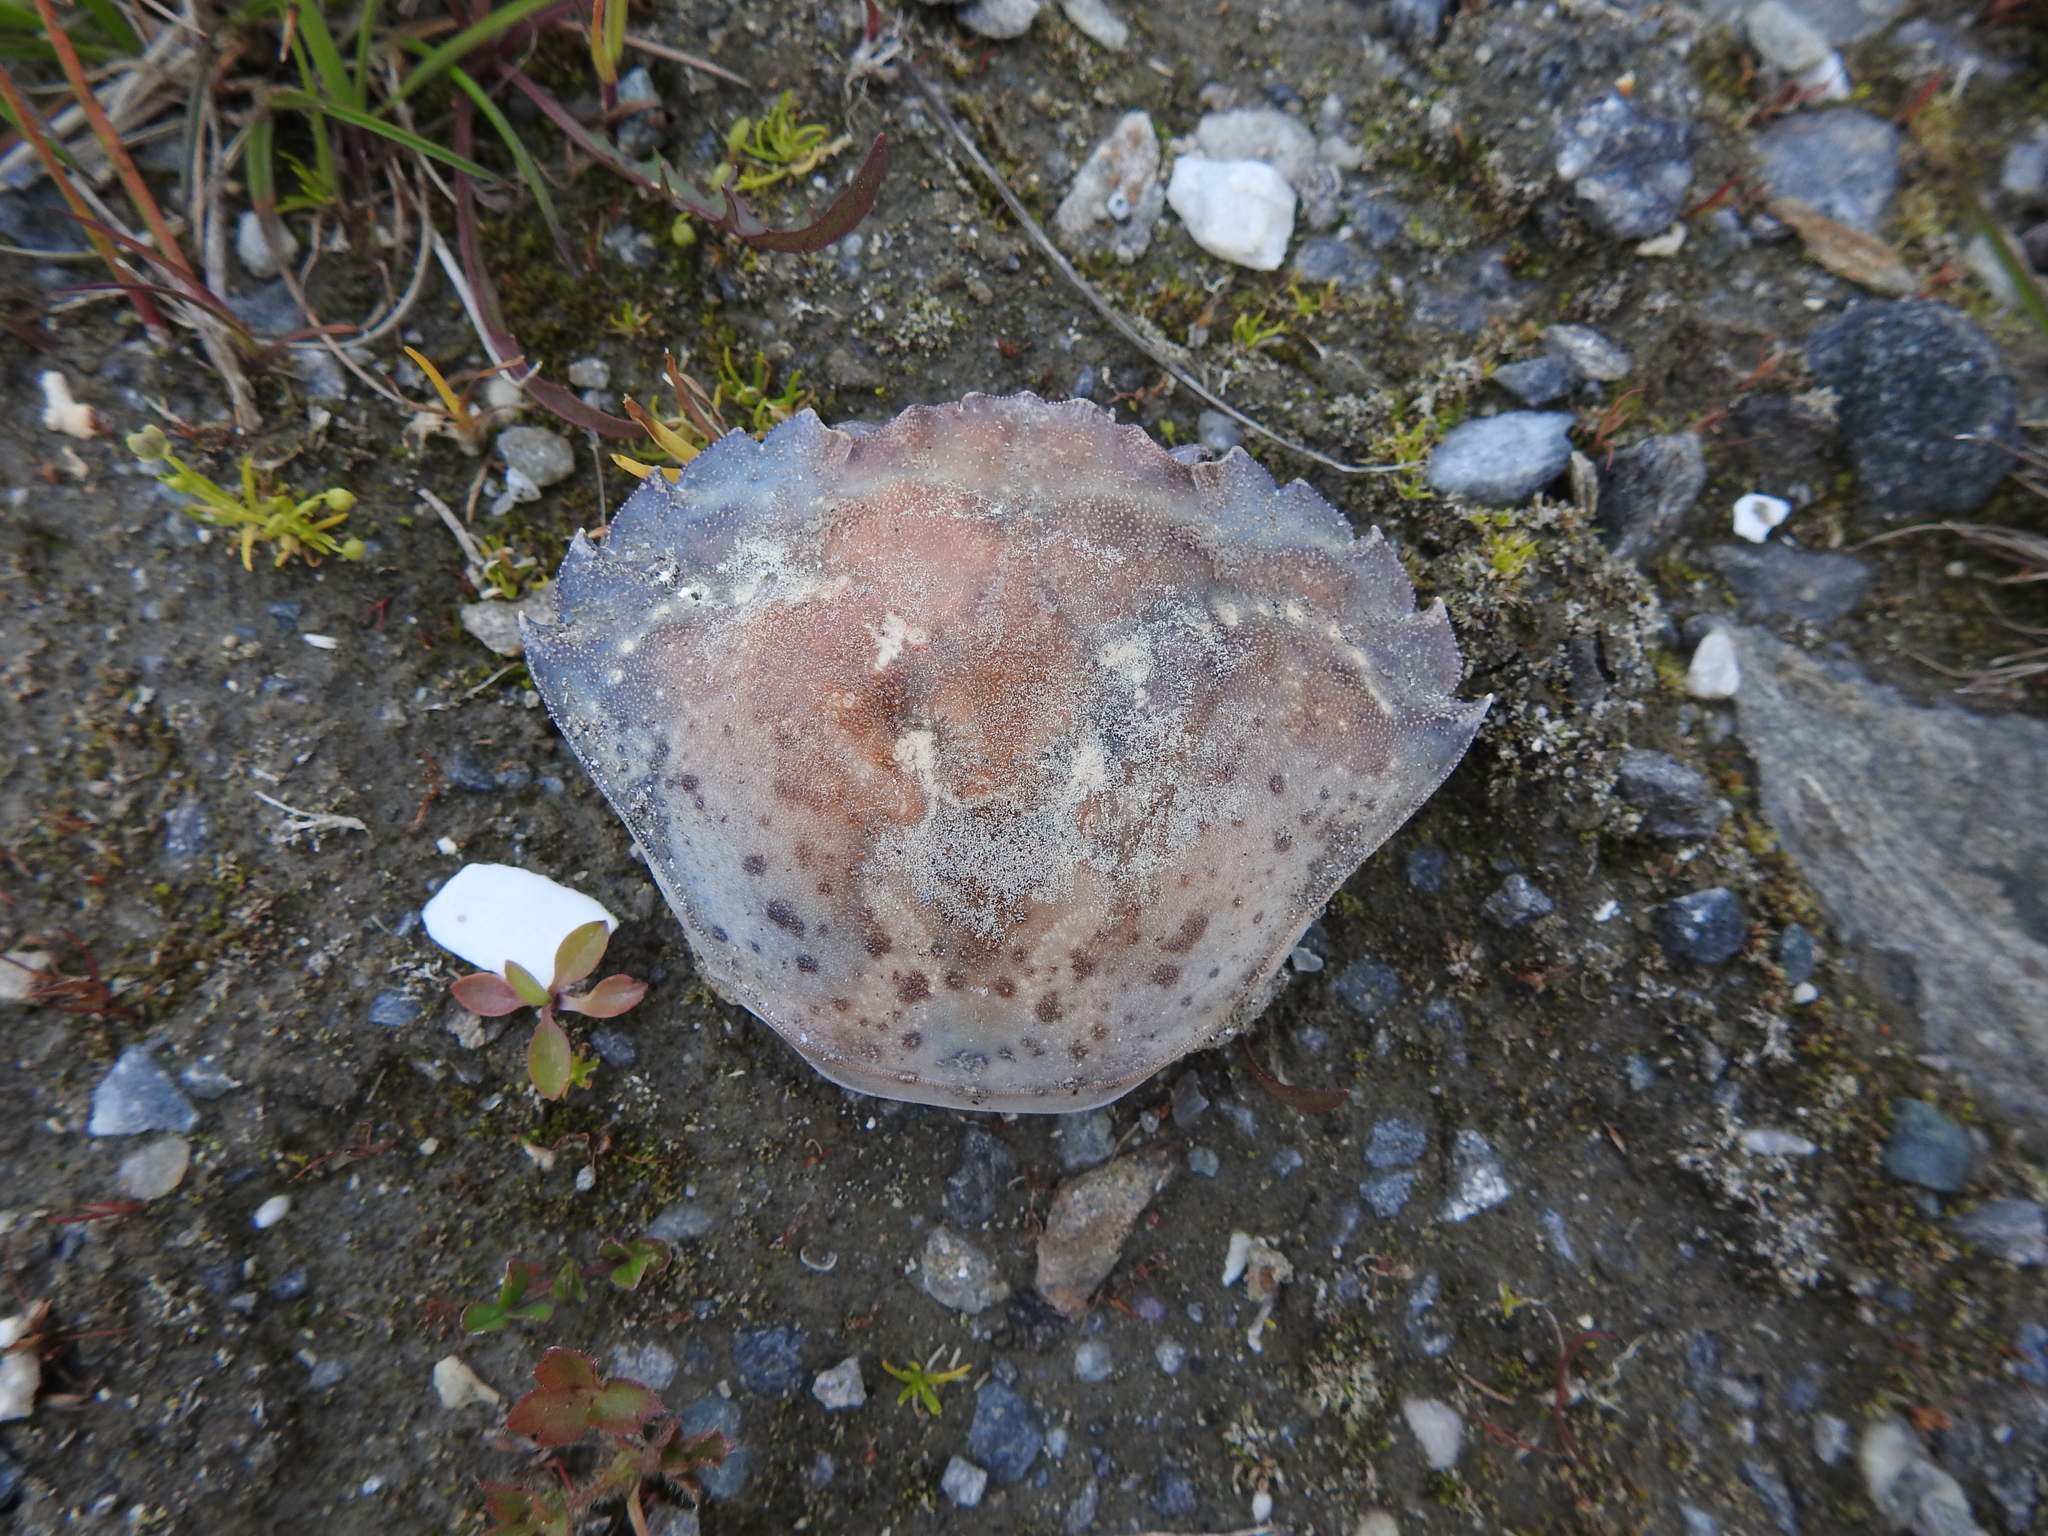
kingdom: Animalia
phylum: Arthropoda
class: Malacostraca
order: Decapoda
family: Carcinidae
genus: Carcinus
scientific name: Carcinus maenas
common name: European green crab
